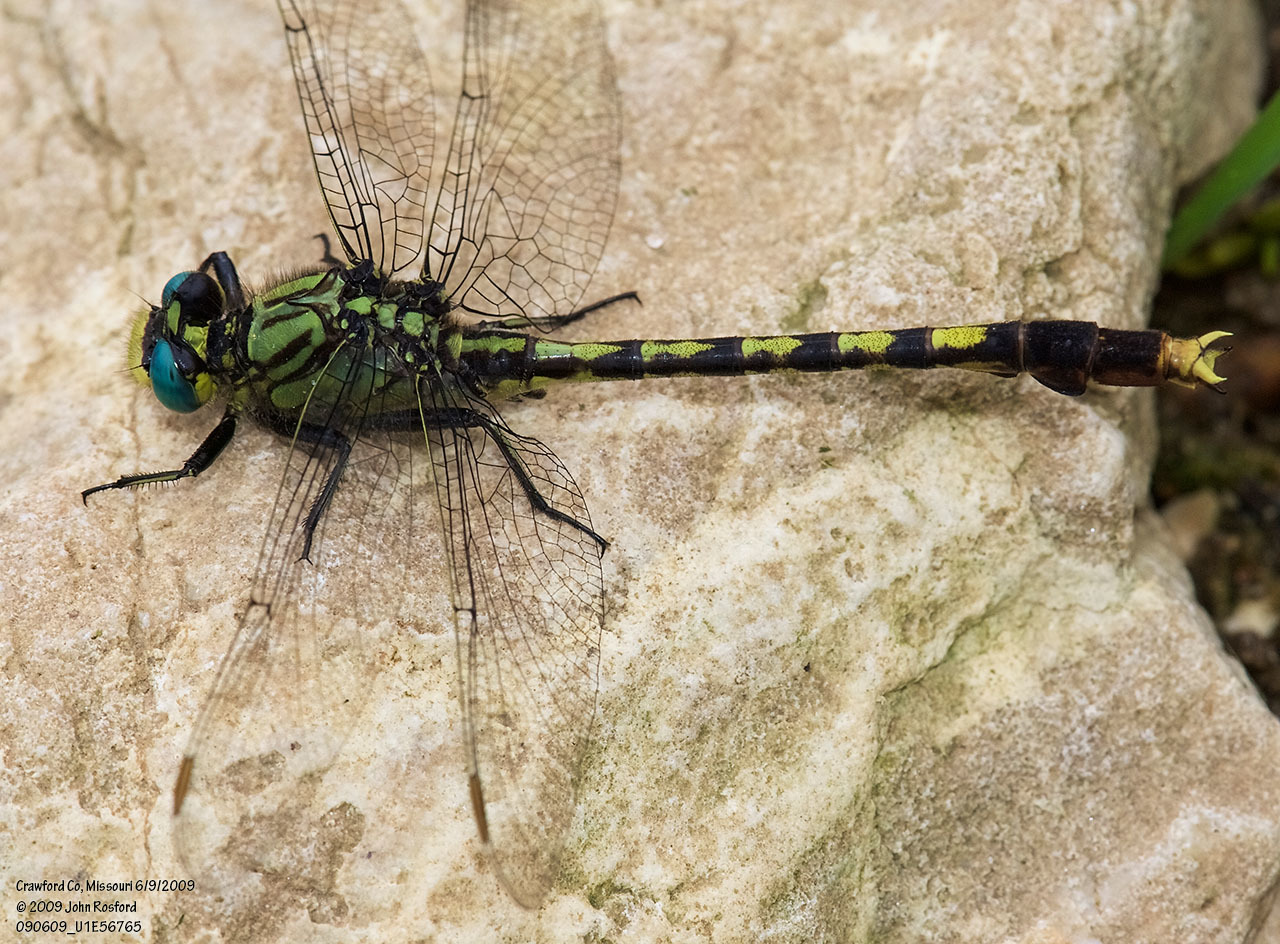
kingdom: Animalia
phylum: Arthropoda
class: Insecta
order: Odonata
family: Gomphidae
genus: Arigomphus
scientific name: Arigomphus villosipes
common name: Unicorn clubtail
